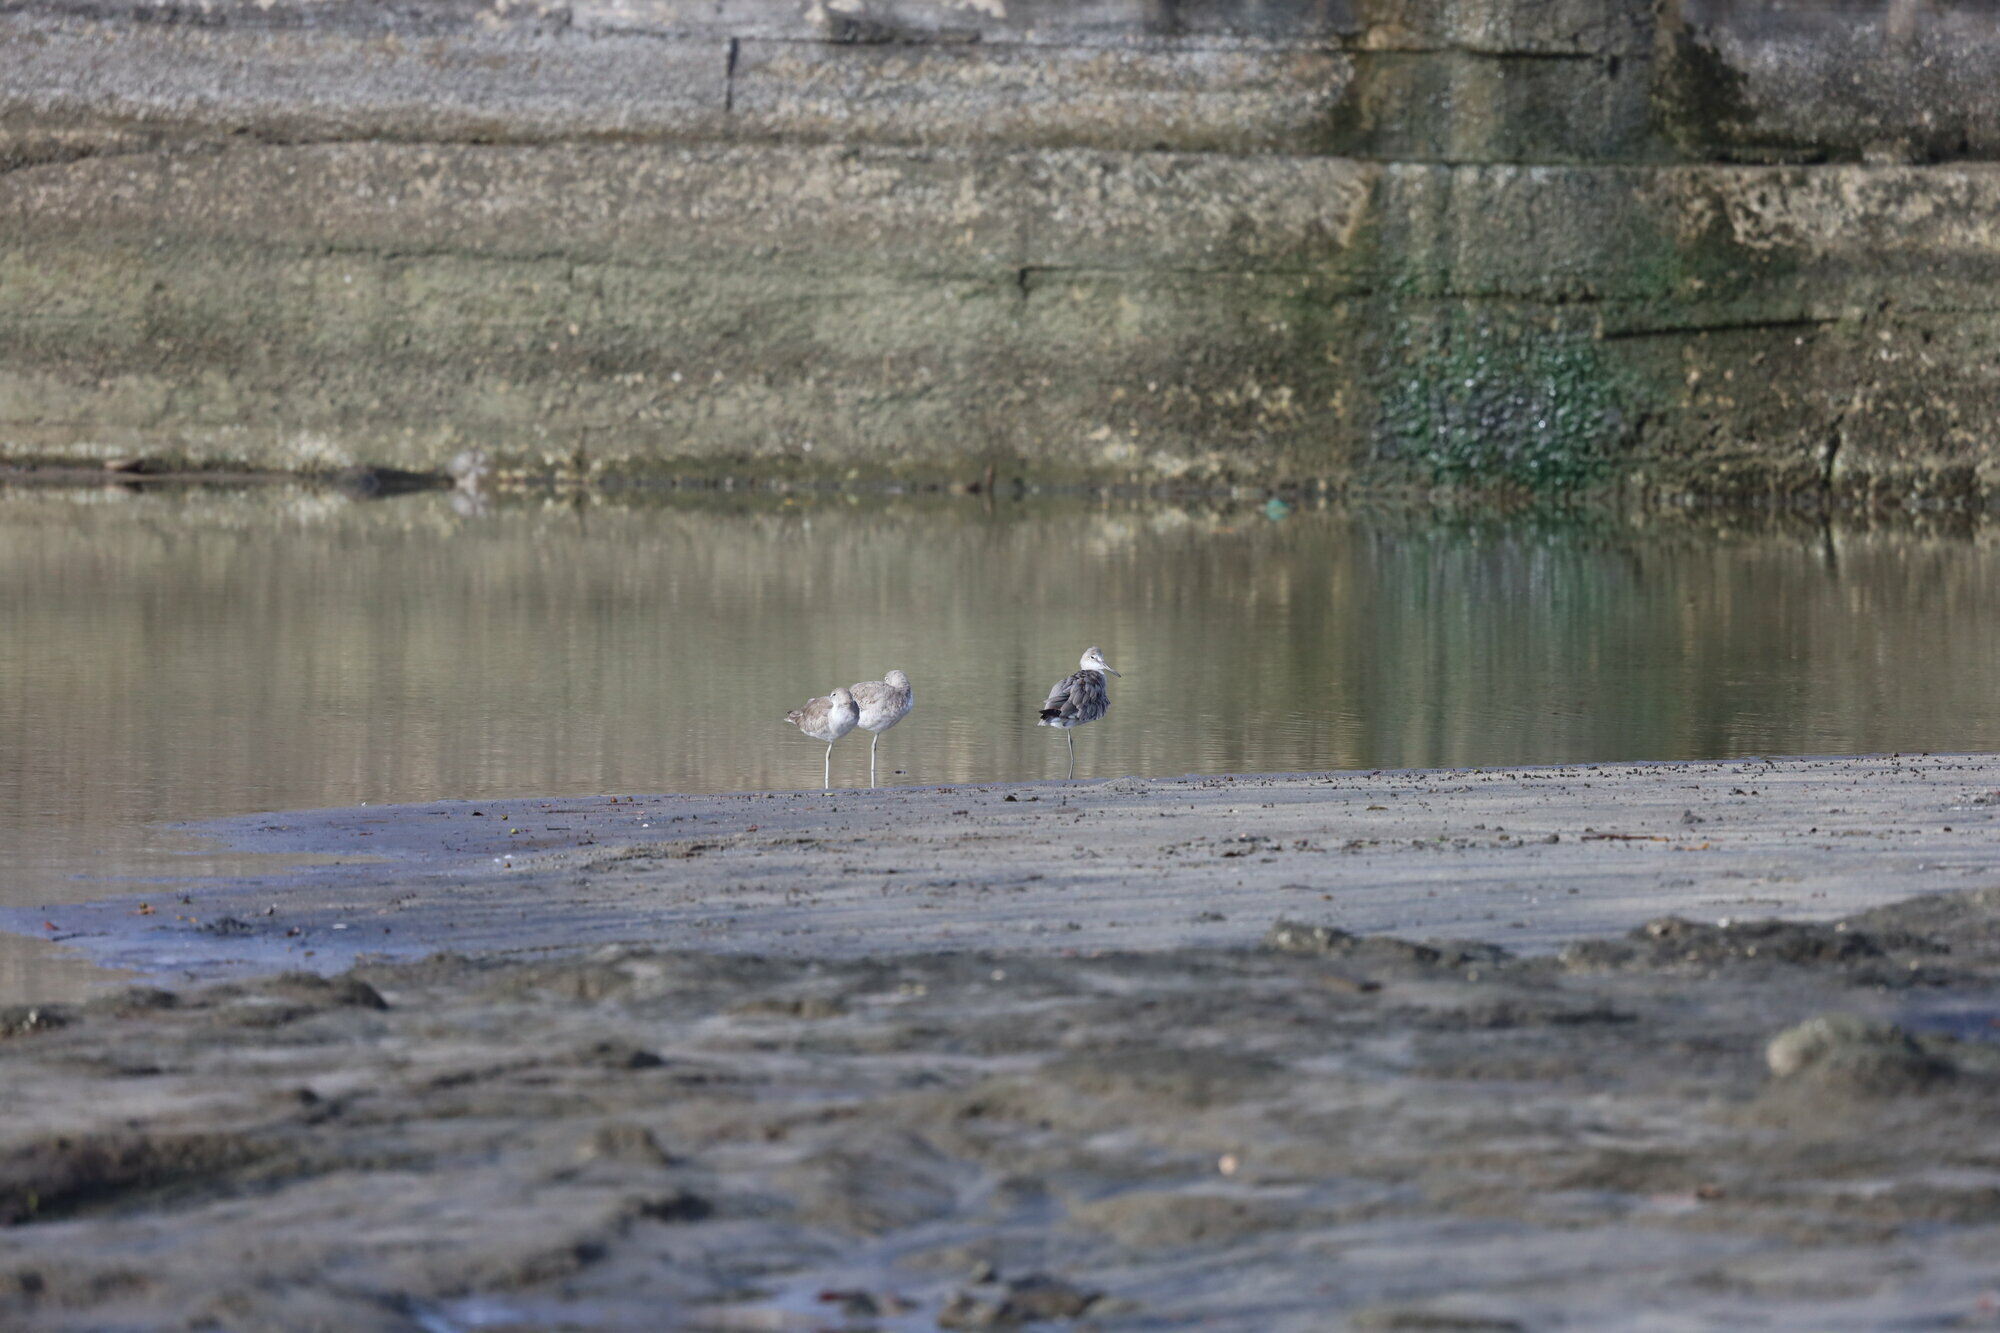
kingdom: Animalia
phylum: Chordata
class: Aves
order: Charadriiformes
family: Scolopacidae
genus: Tringa
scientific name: Tringa semipalmata
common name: Willet
